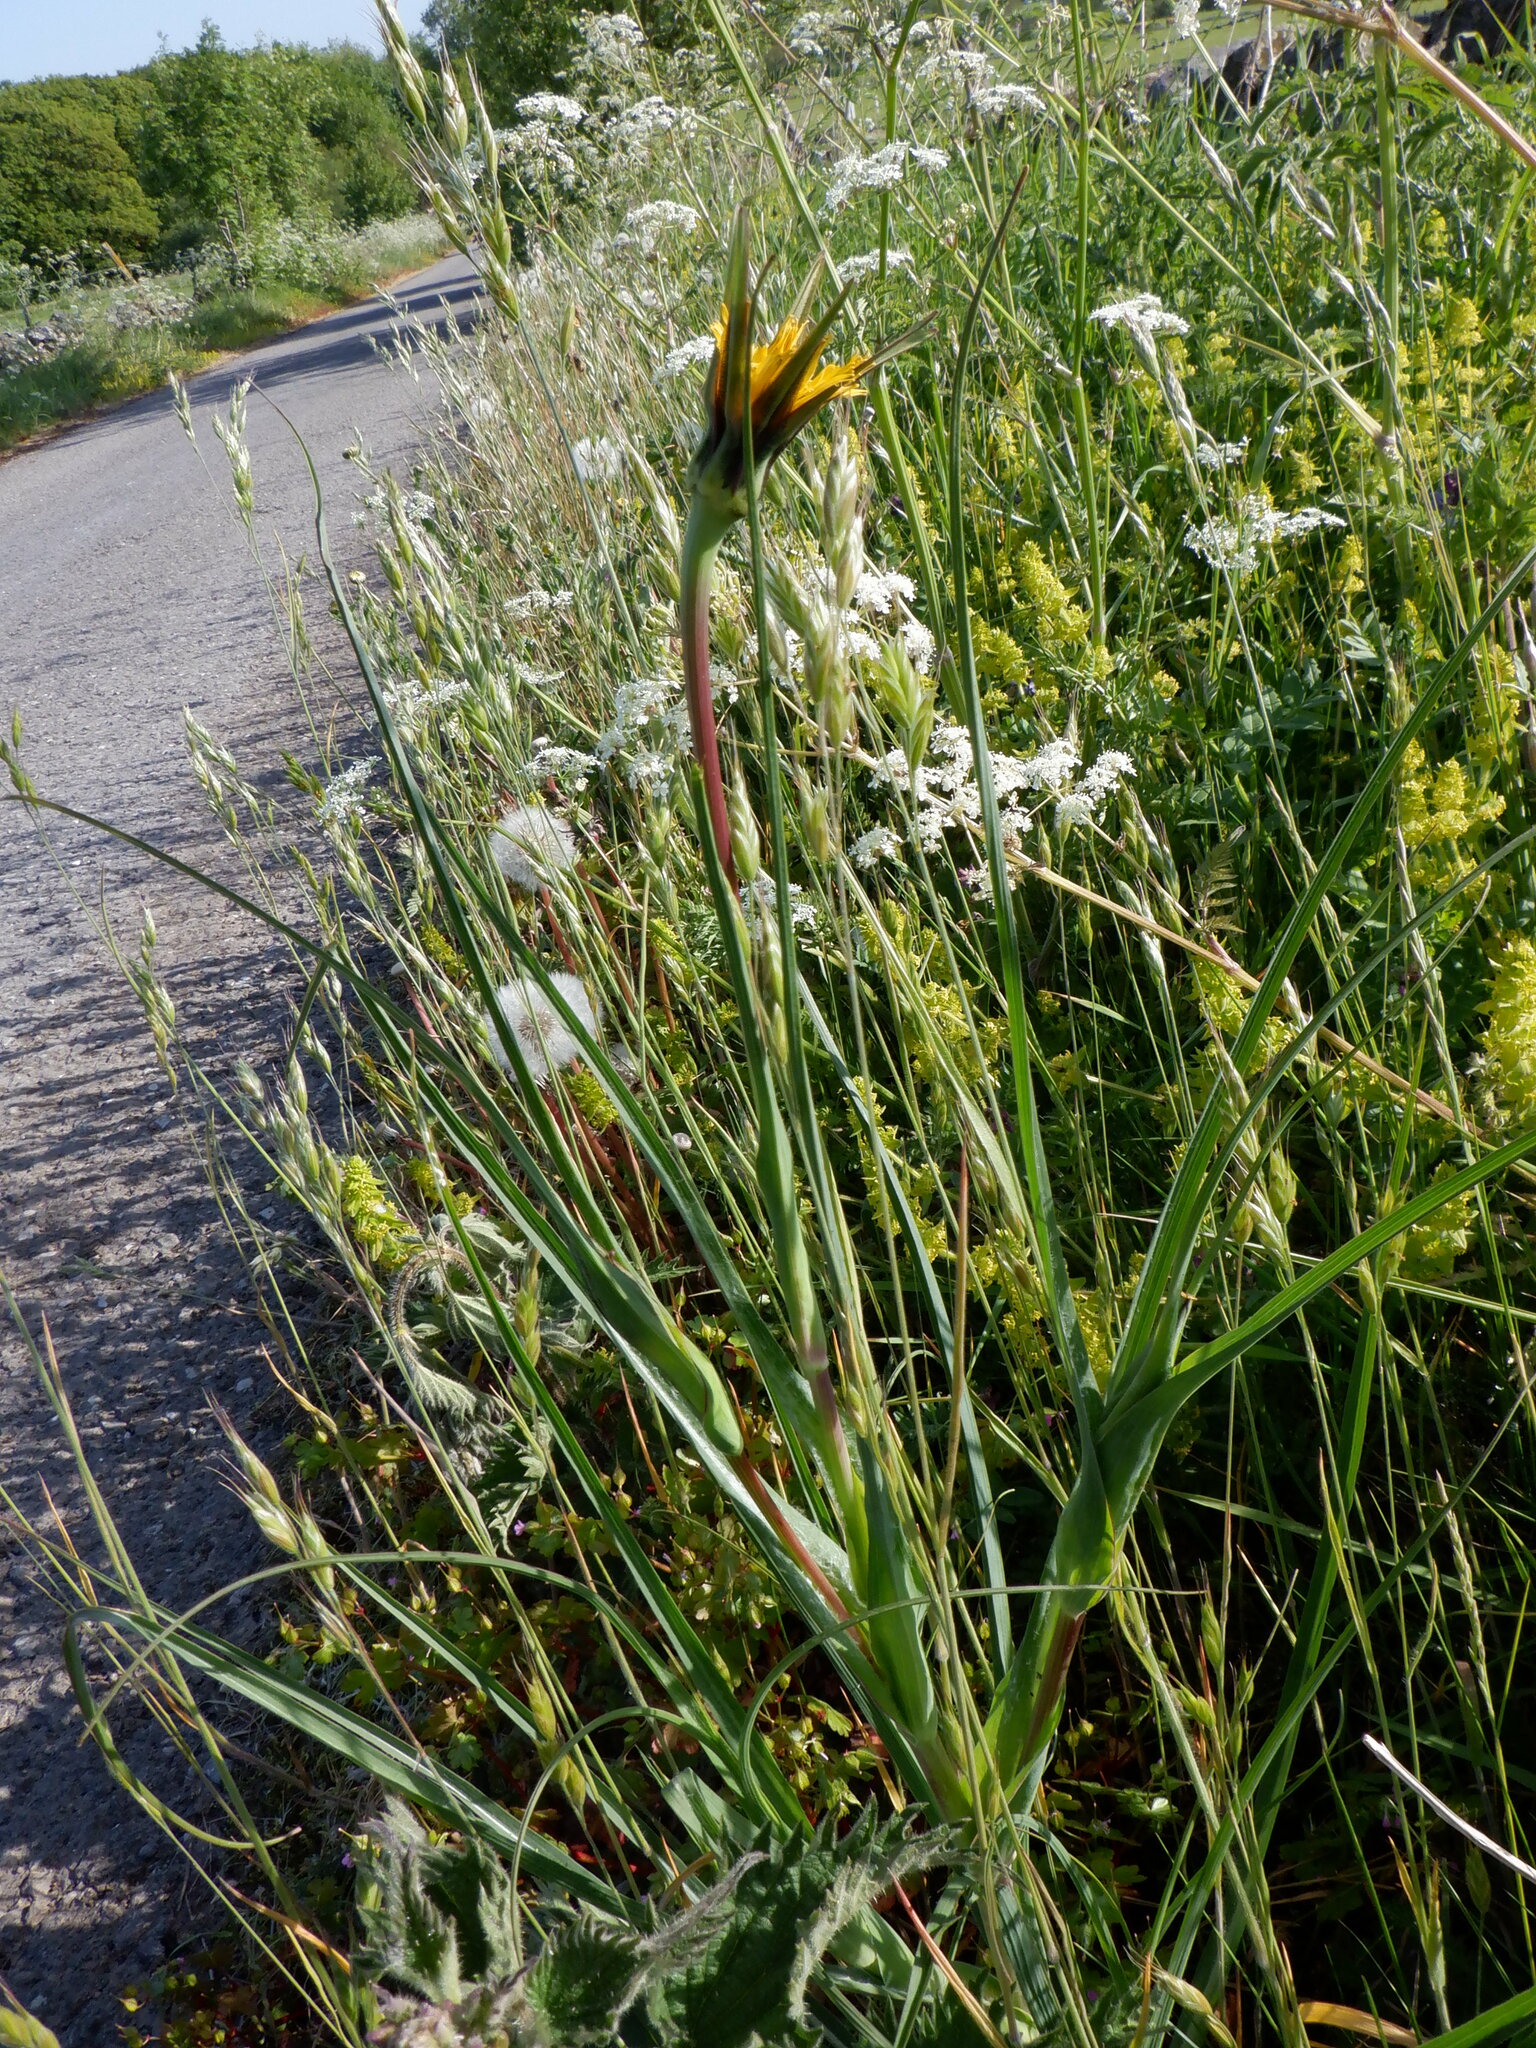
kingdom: Plantae
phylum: Tracheophyta
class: Magnoliopsida
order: Asterales
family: Asteraceae
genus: Tragopogon
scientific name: Tragopogon pratensis
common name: Goat's-beard
